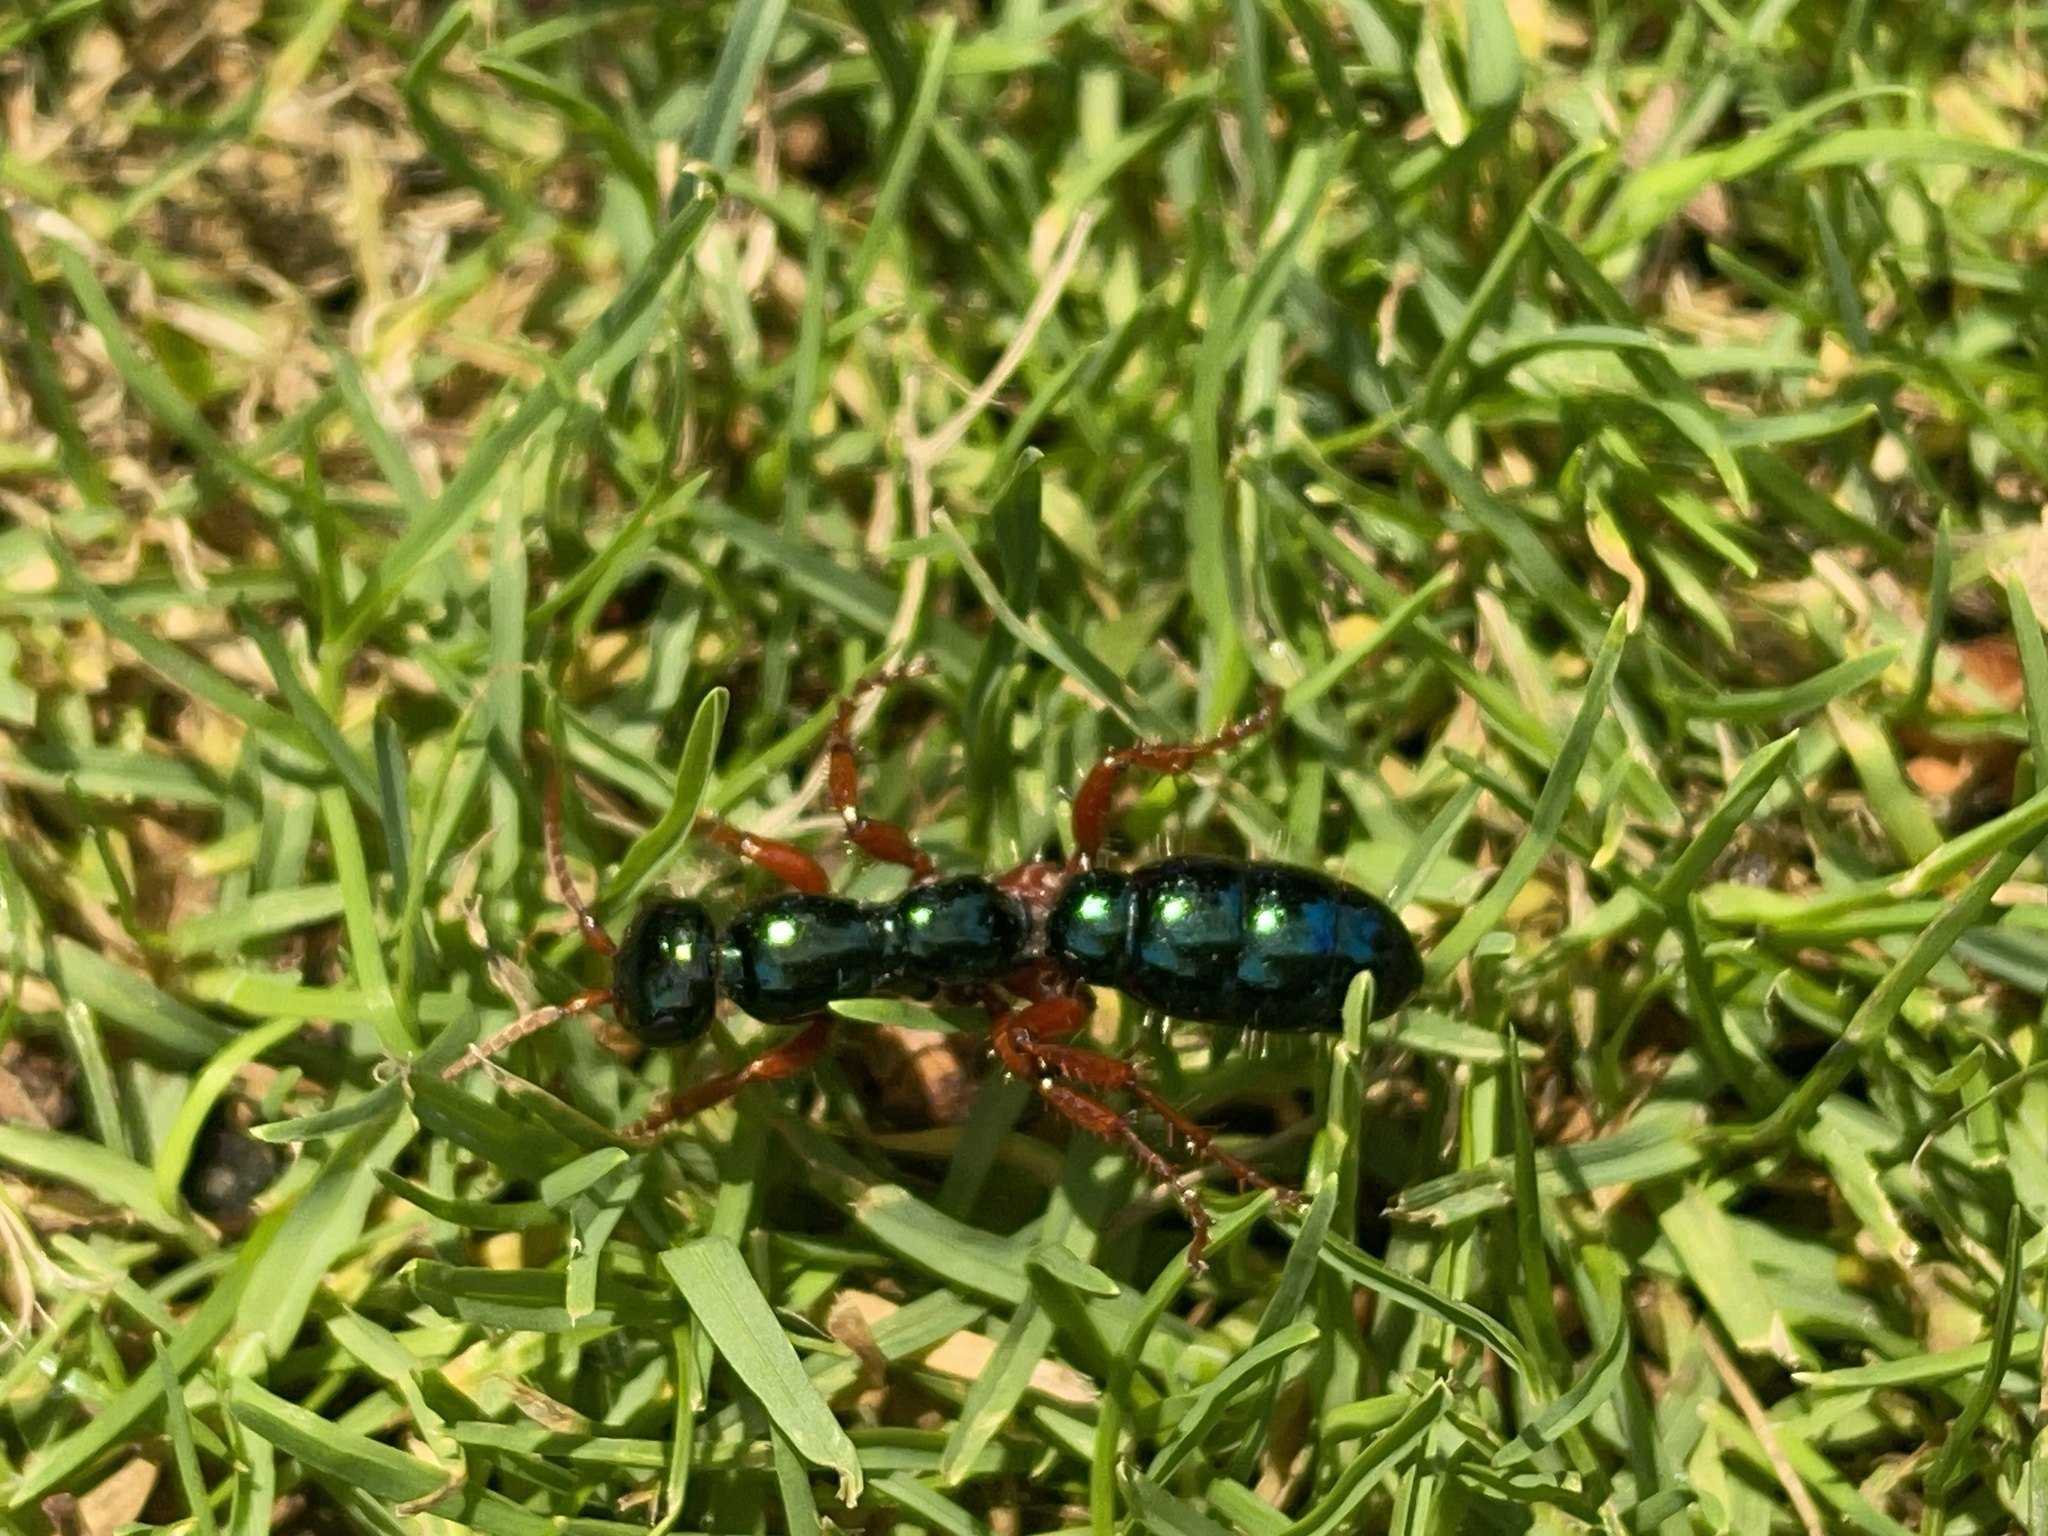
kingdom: Animalia
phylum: Arthropoda
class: Insecta
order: Hymenoptera
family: Tiphiidae
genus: Diamma
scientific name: Diamma
